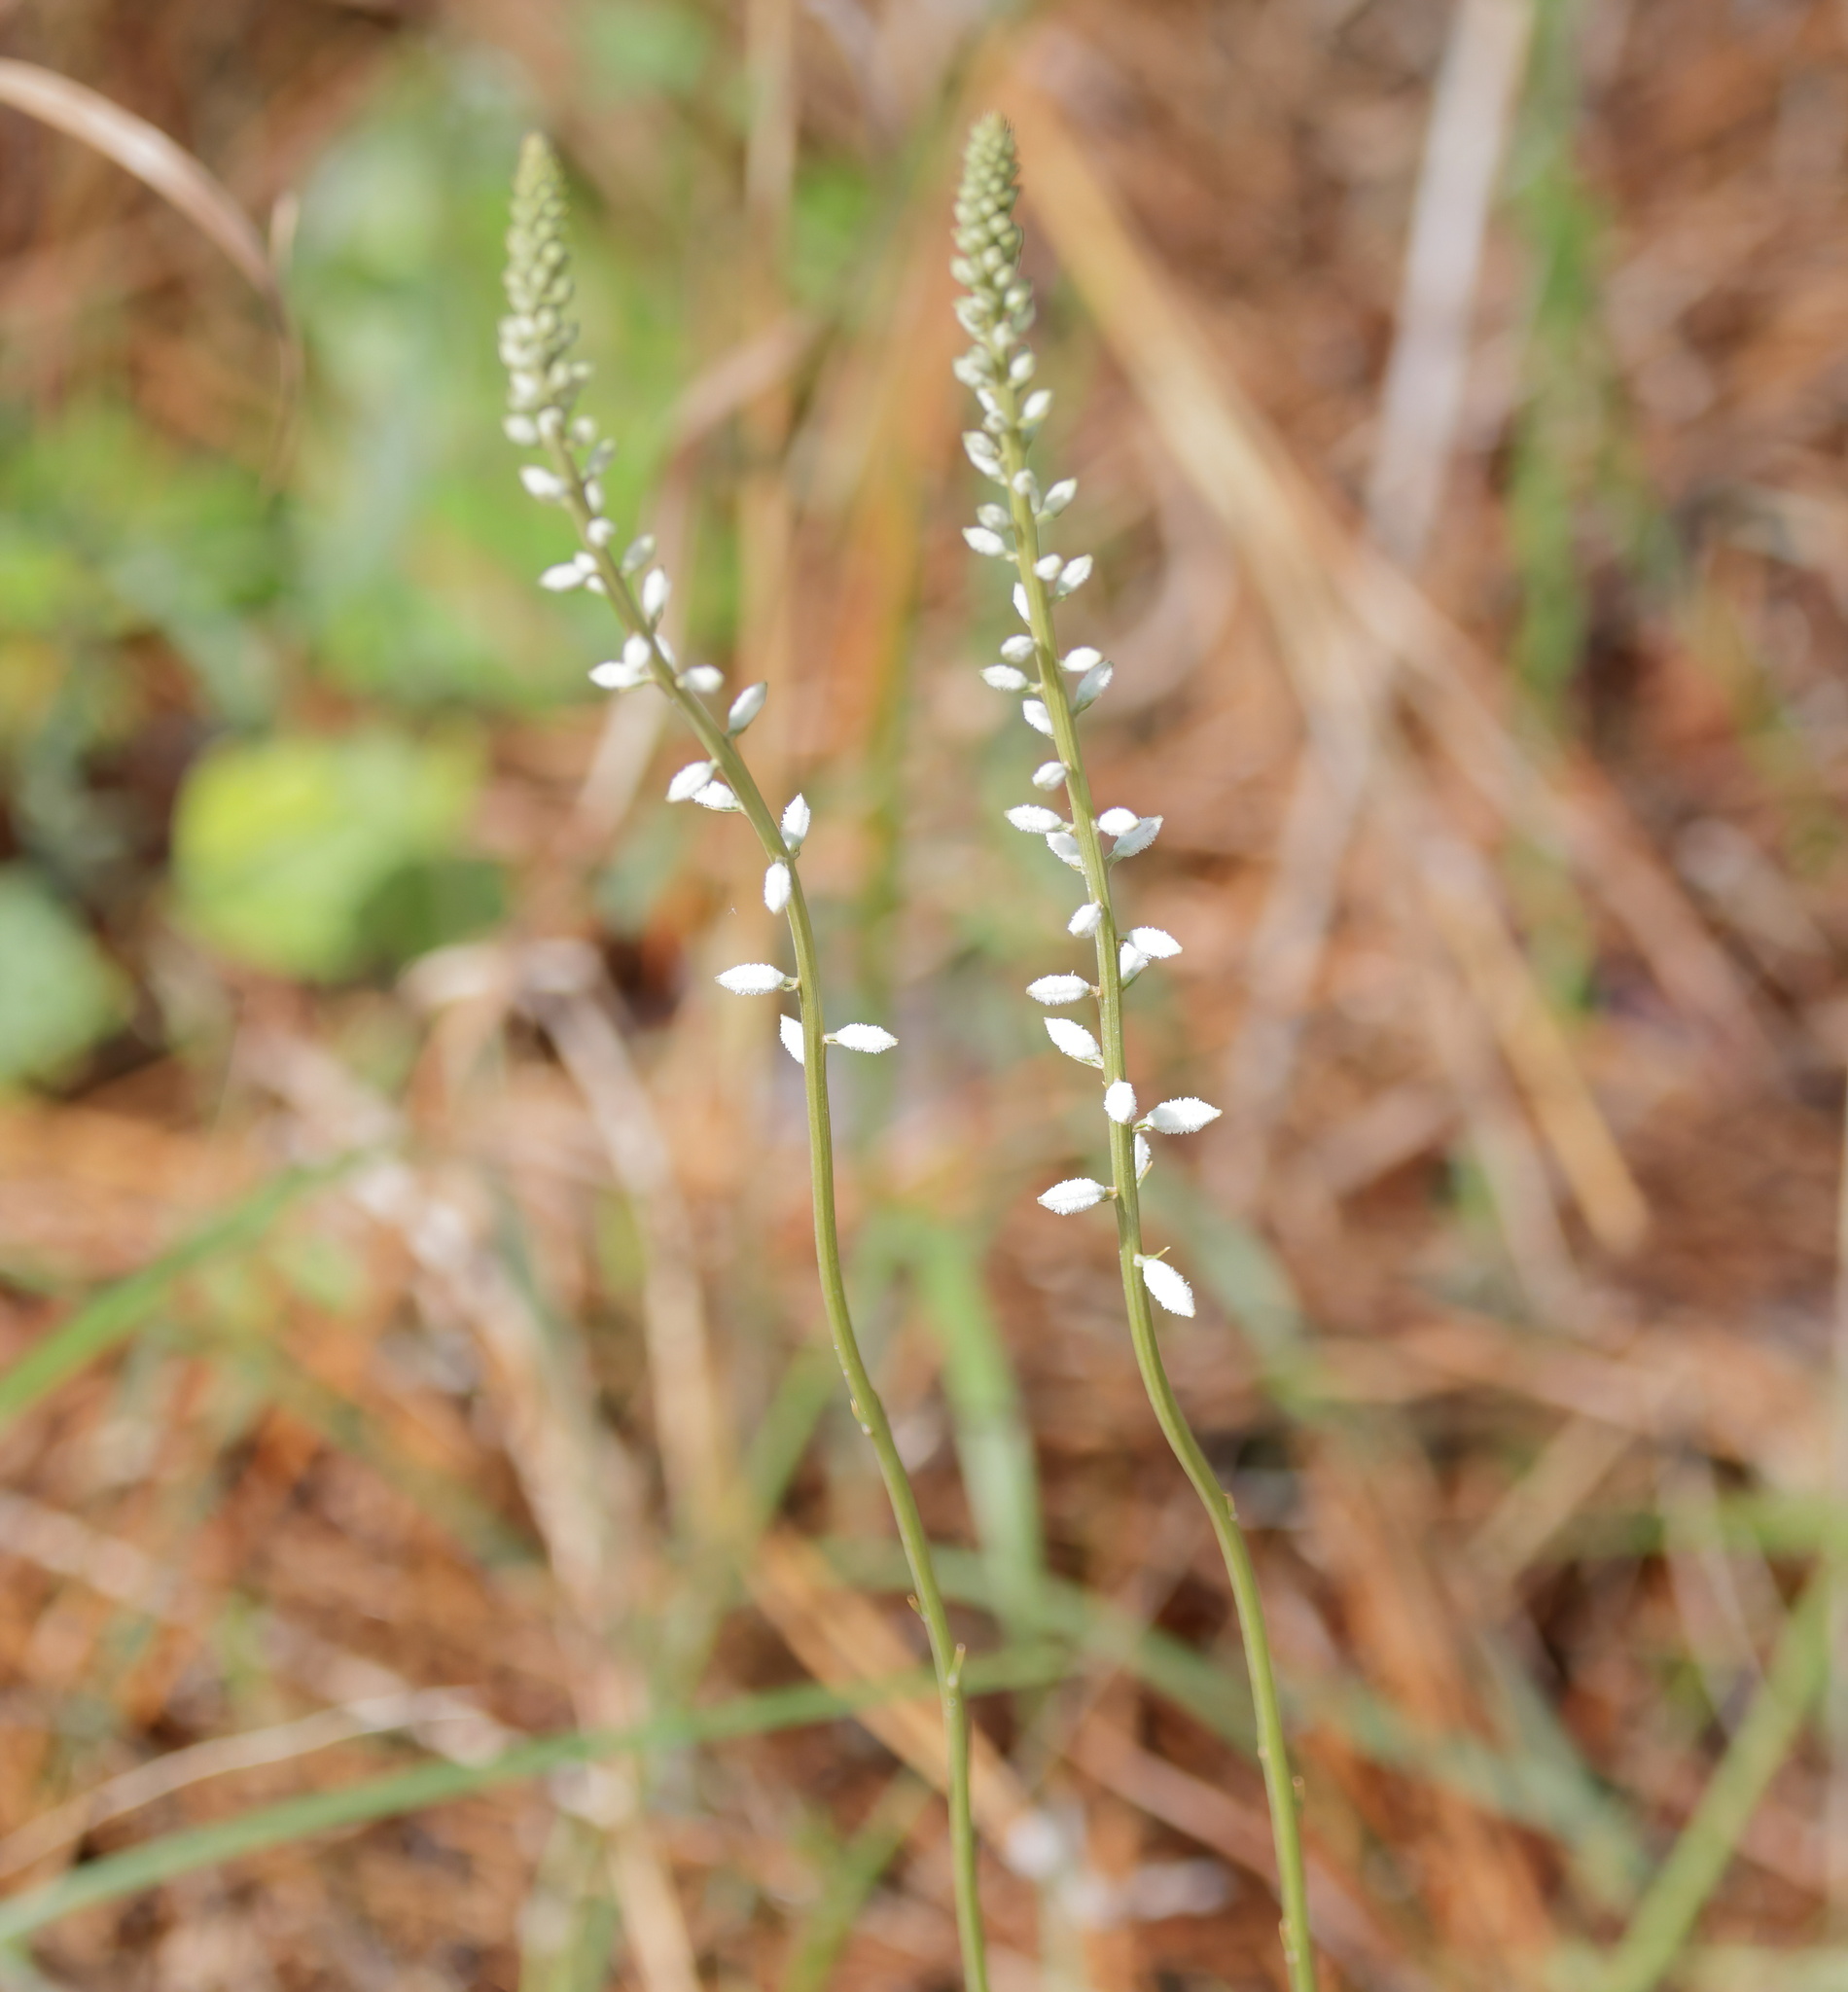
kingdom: Plantae
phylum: Tracheophyta
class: Liliopsida
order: Dioscoreales
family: Nartheciaceae
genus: Aletris
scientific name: Aletris farinosa
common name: Colicroot
